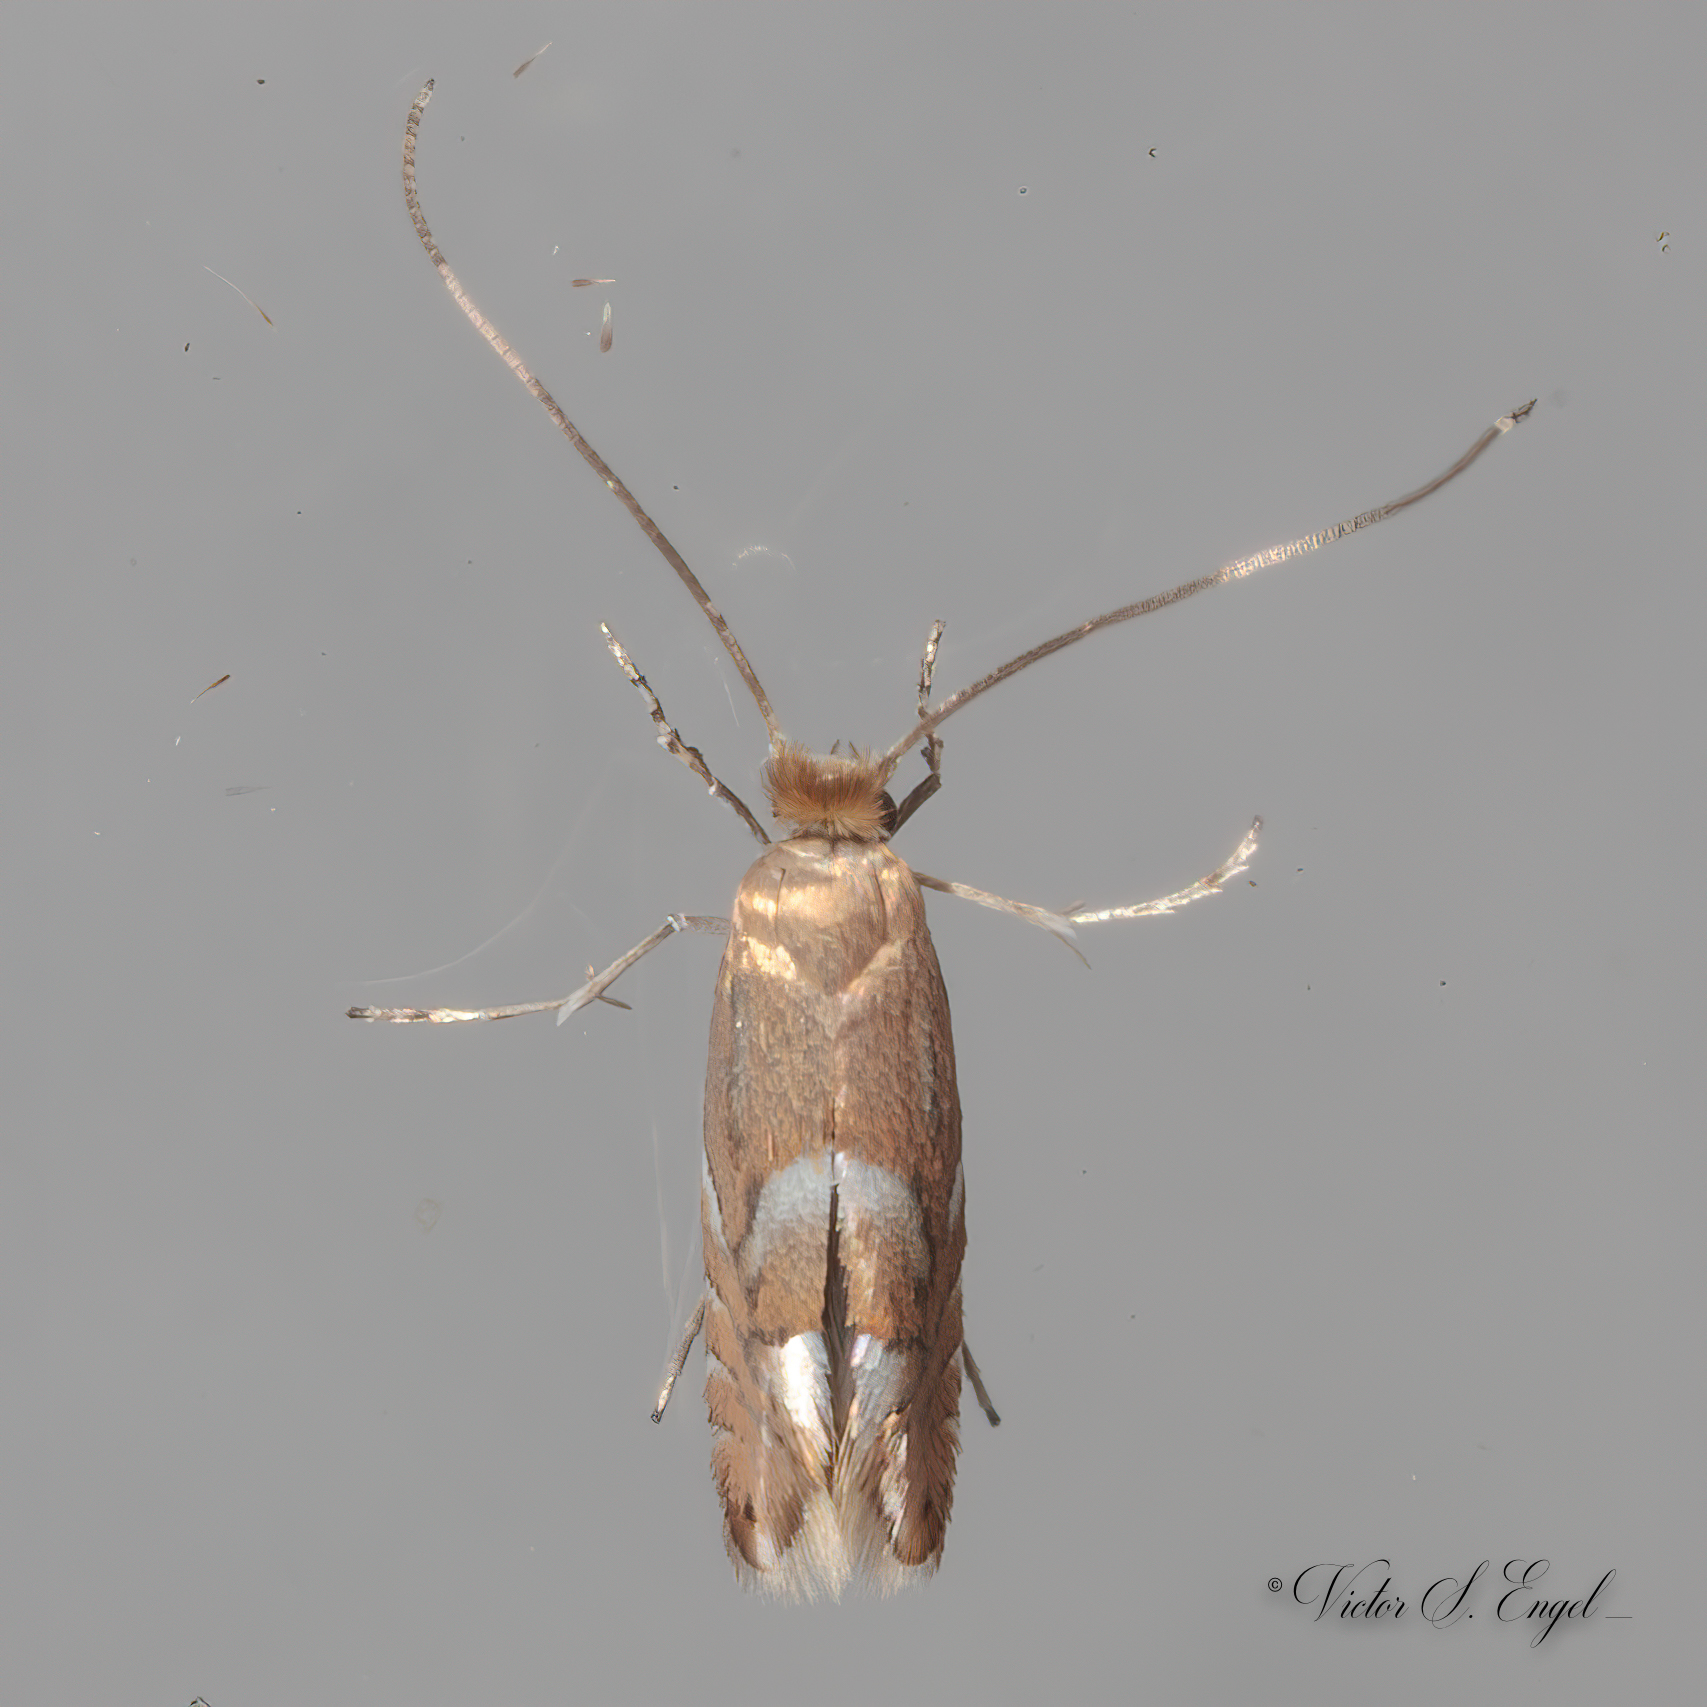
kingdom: Animalia
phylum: Arthropoda
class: Insecta
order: Lepidoptera
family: Gracillariidae
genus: Phyllonorycter
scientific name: Phyllonorycter aeriferella
